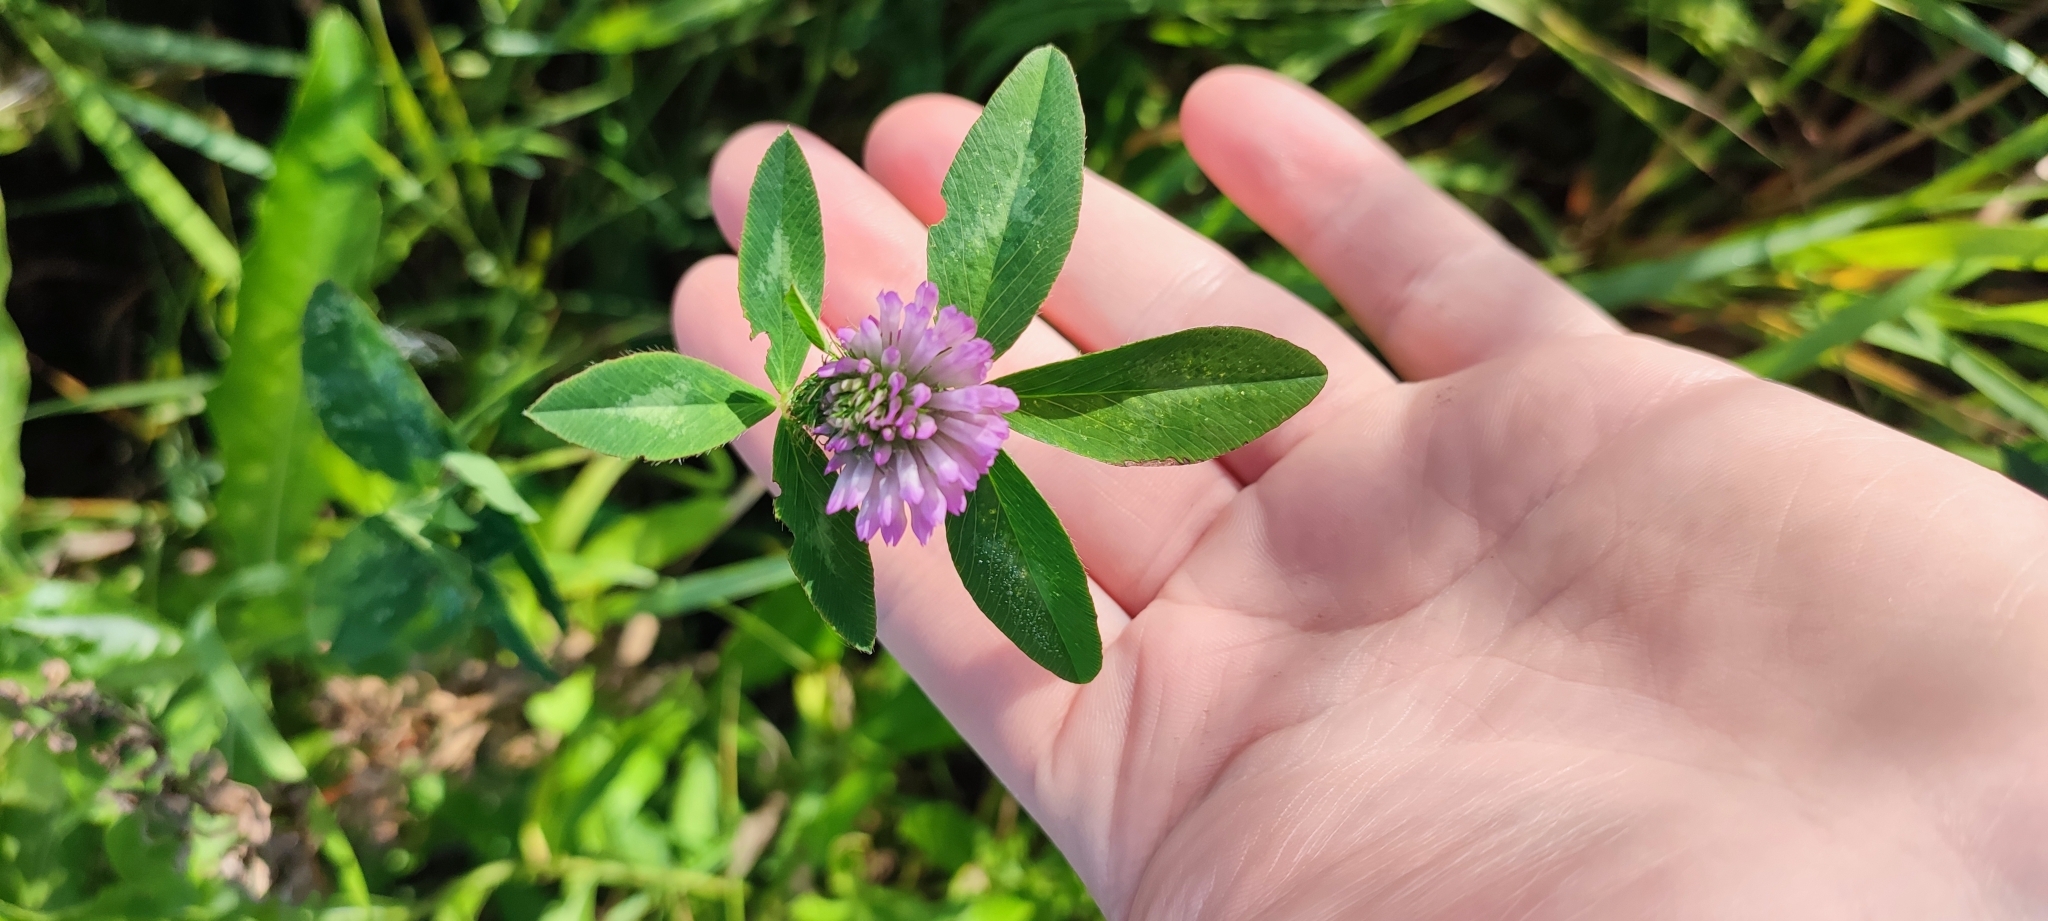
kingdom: Plantae
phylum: Tracheophyta
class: Magnoliopsida
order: Fabales
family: Fabaceae
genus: Trifolium
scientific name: Trifolium pratense
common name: Red clover
